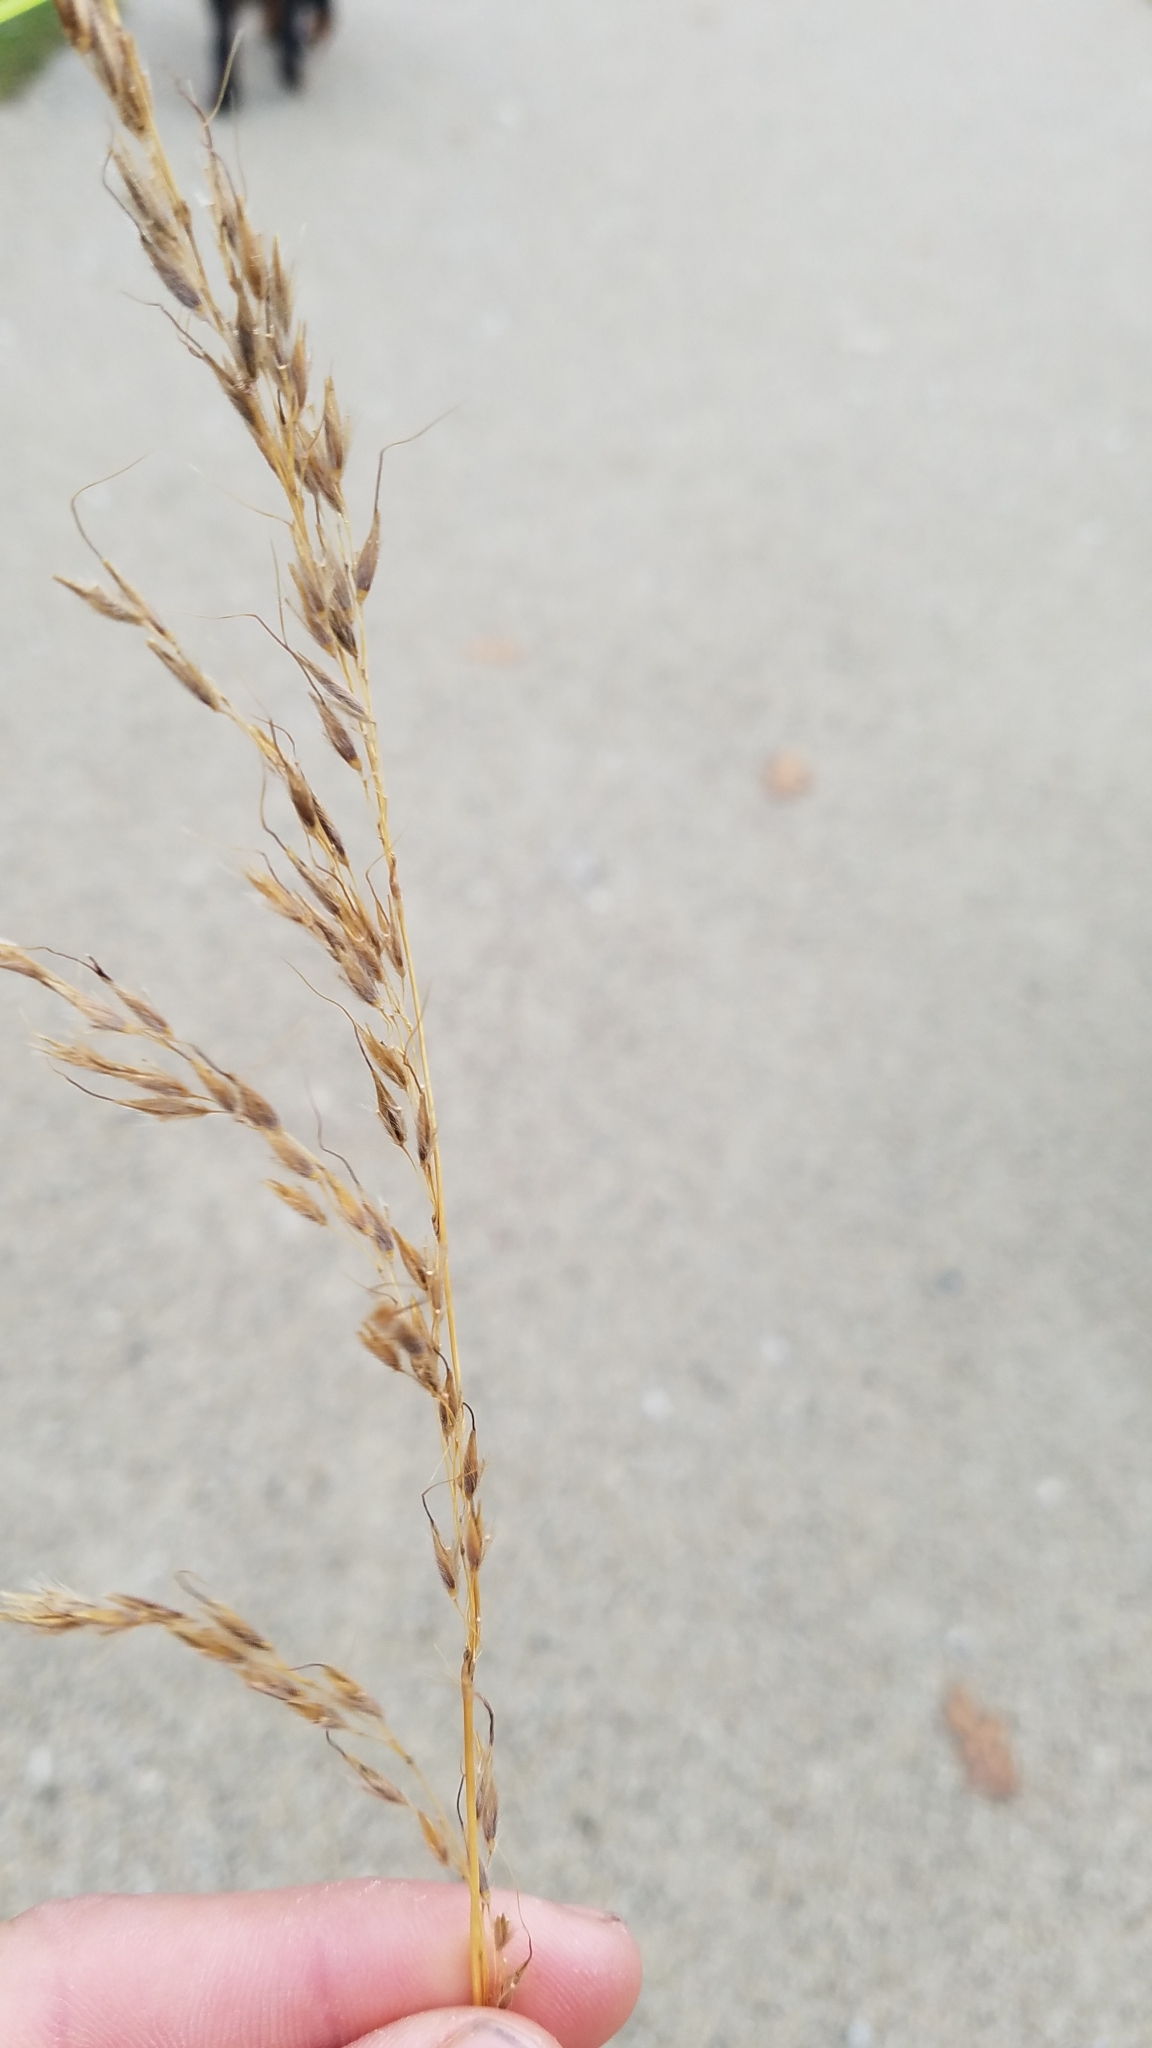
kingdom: Plantae
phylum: Tracheophyta
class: Liliopsida
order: Poales
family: Poaceae
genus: Sorghastrum
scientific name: Sorghastrum nutans
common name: Indian grass
